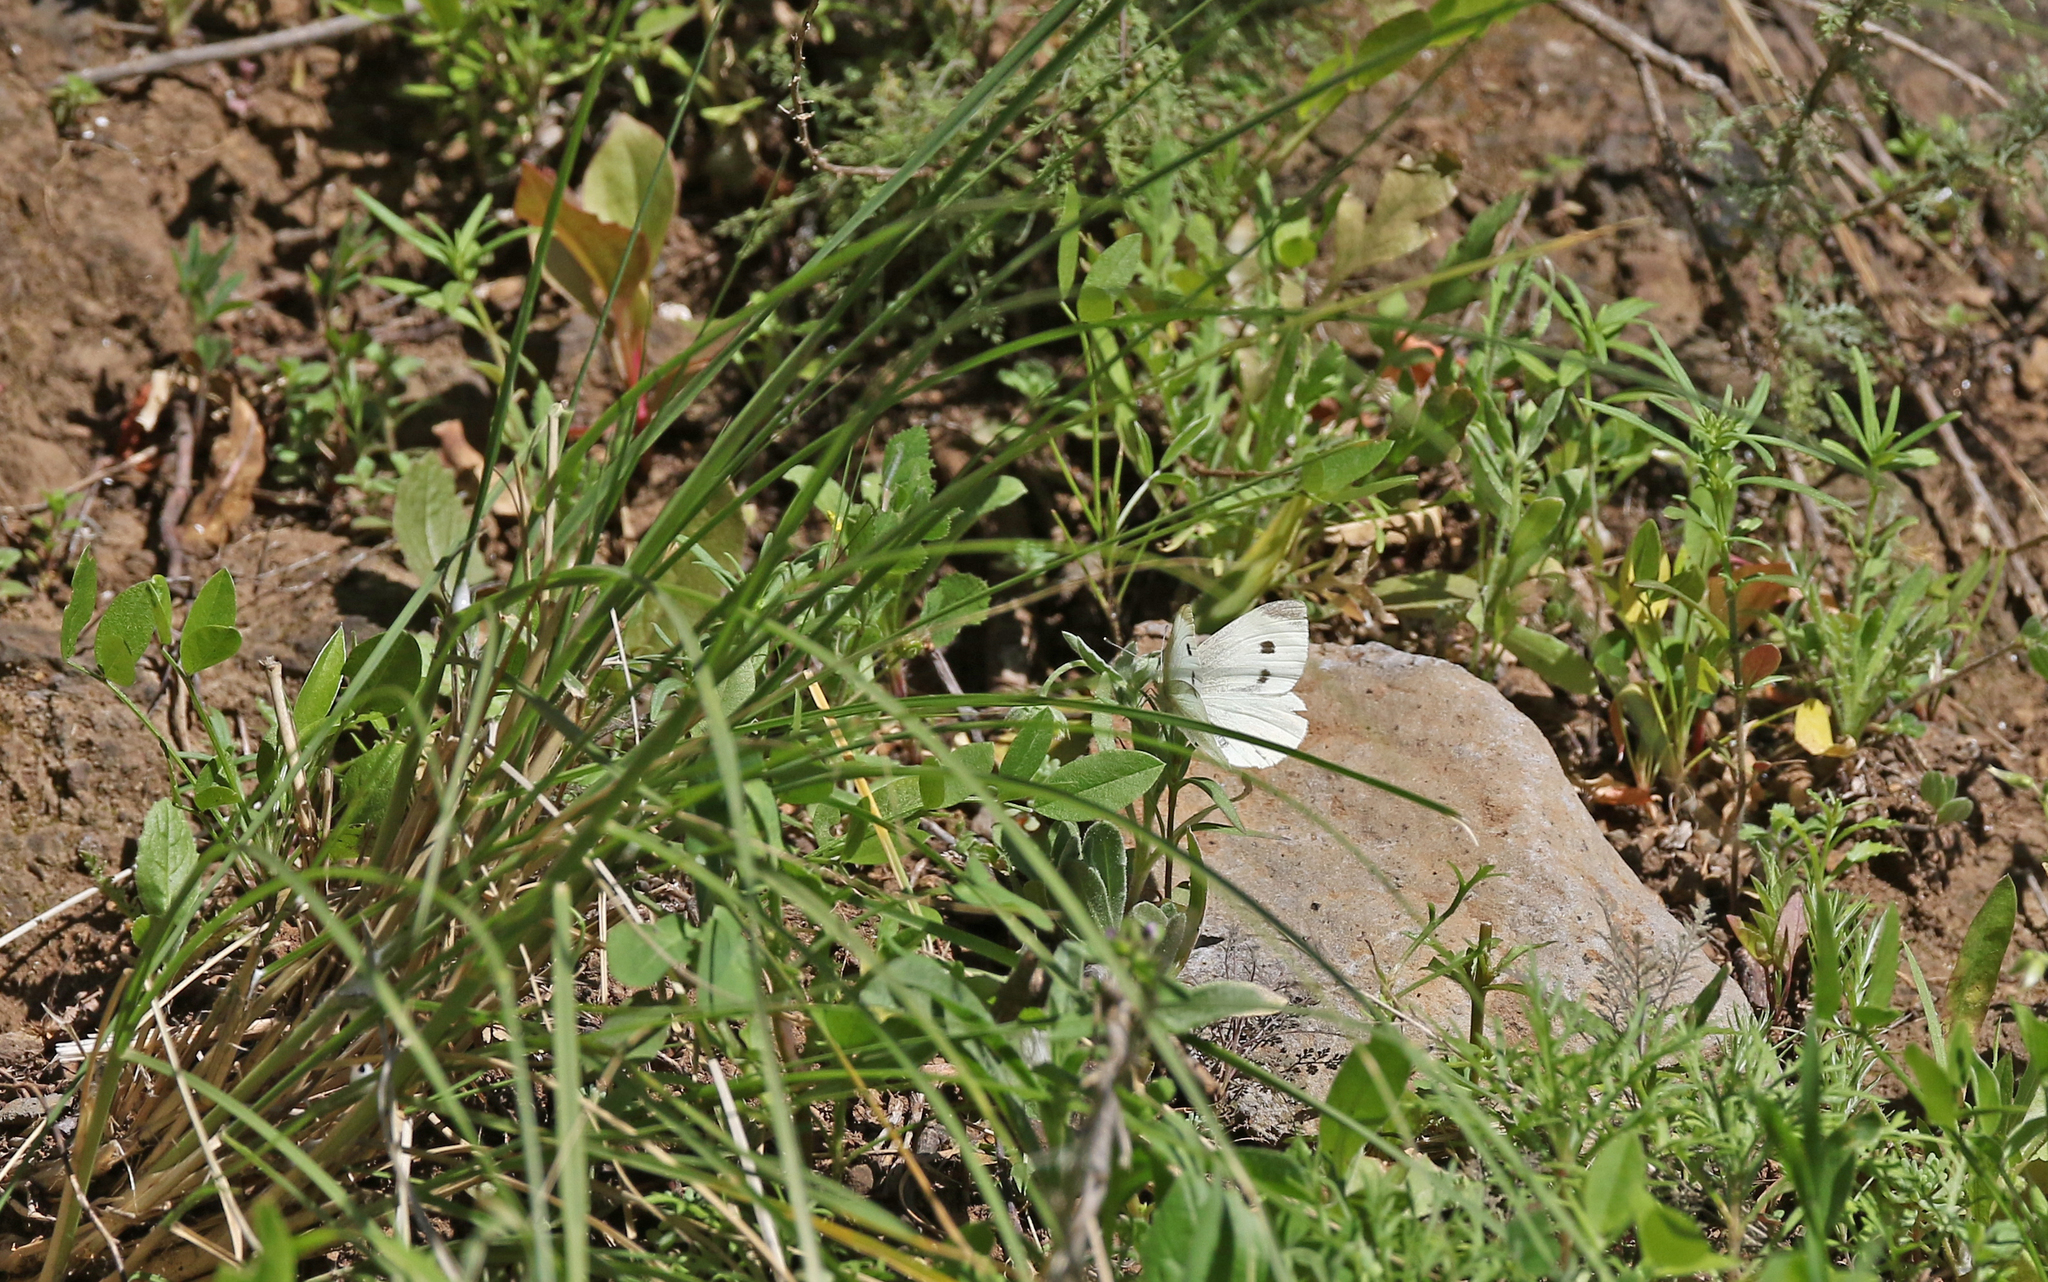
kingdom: Animalia
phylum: Arthropoda
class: Insecta
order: Lepidoptera
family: Pieridae
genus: Pieris
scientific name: Pieris rapae
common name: Small white
